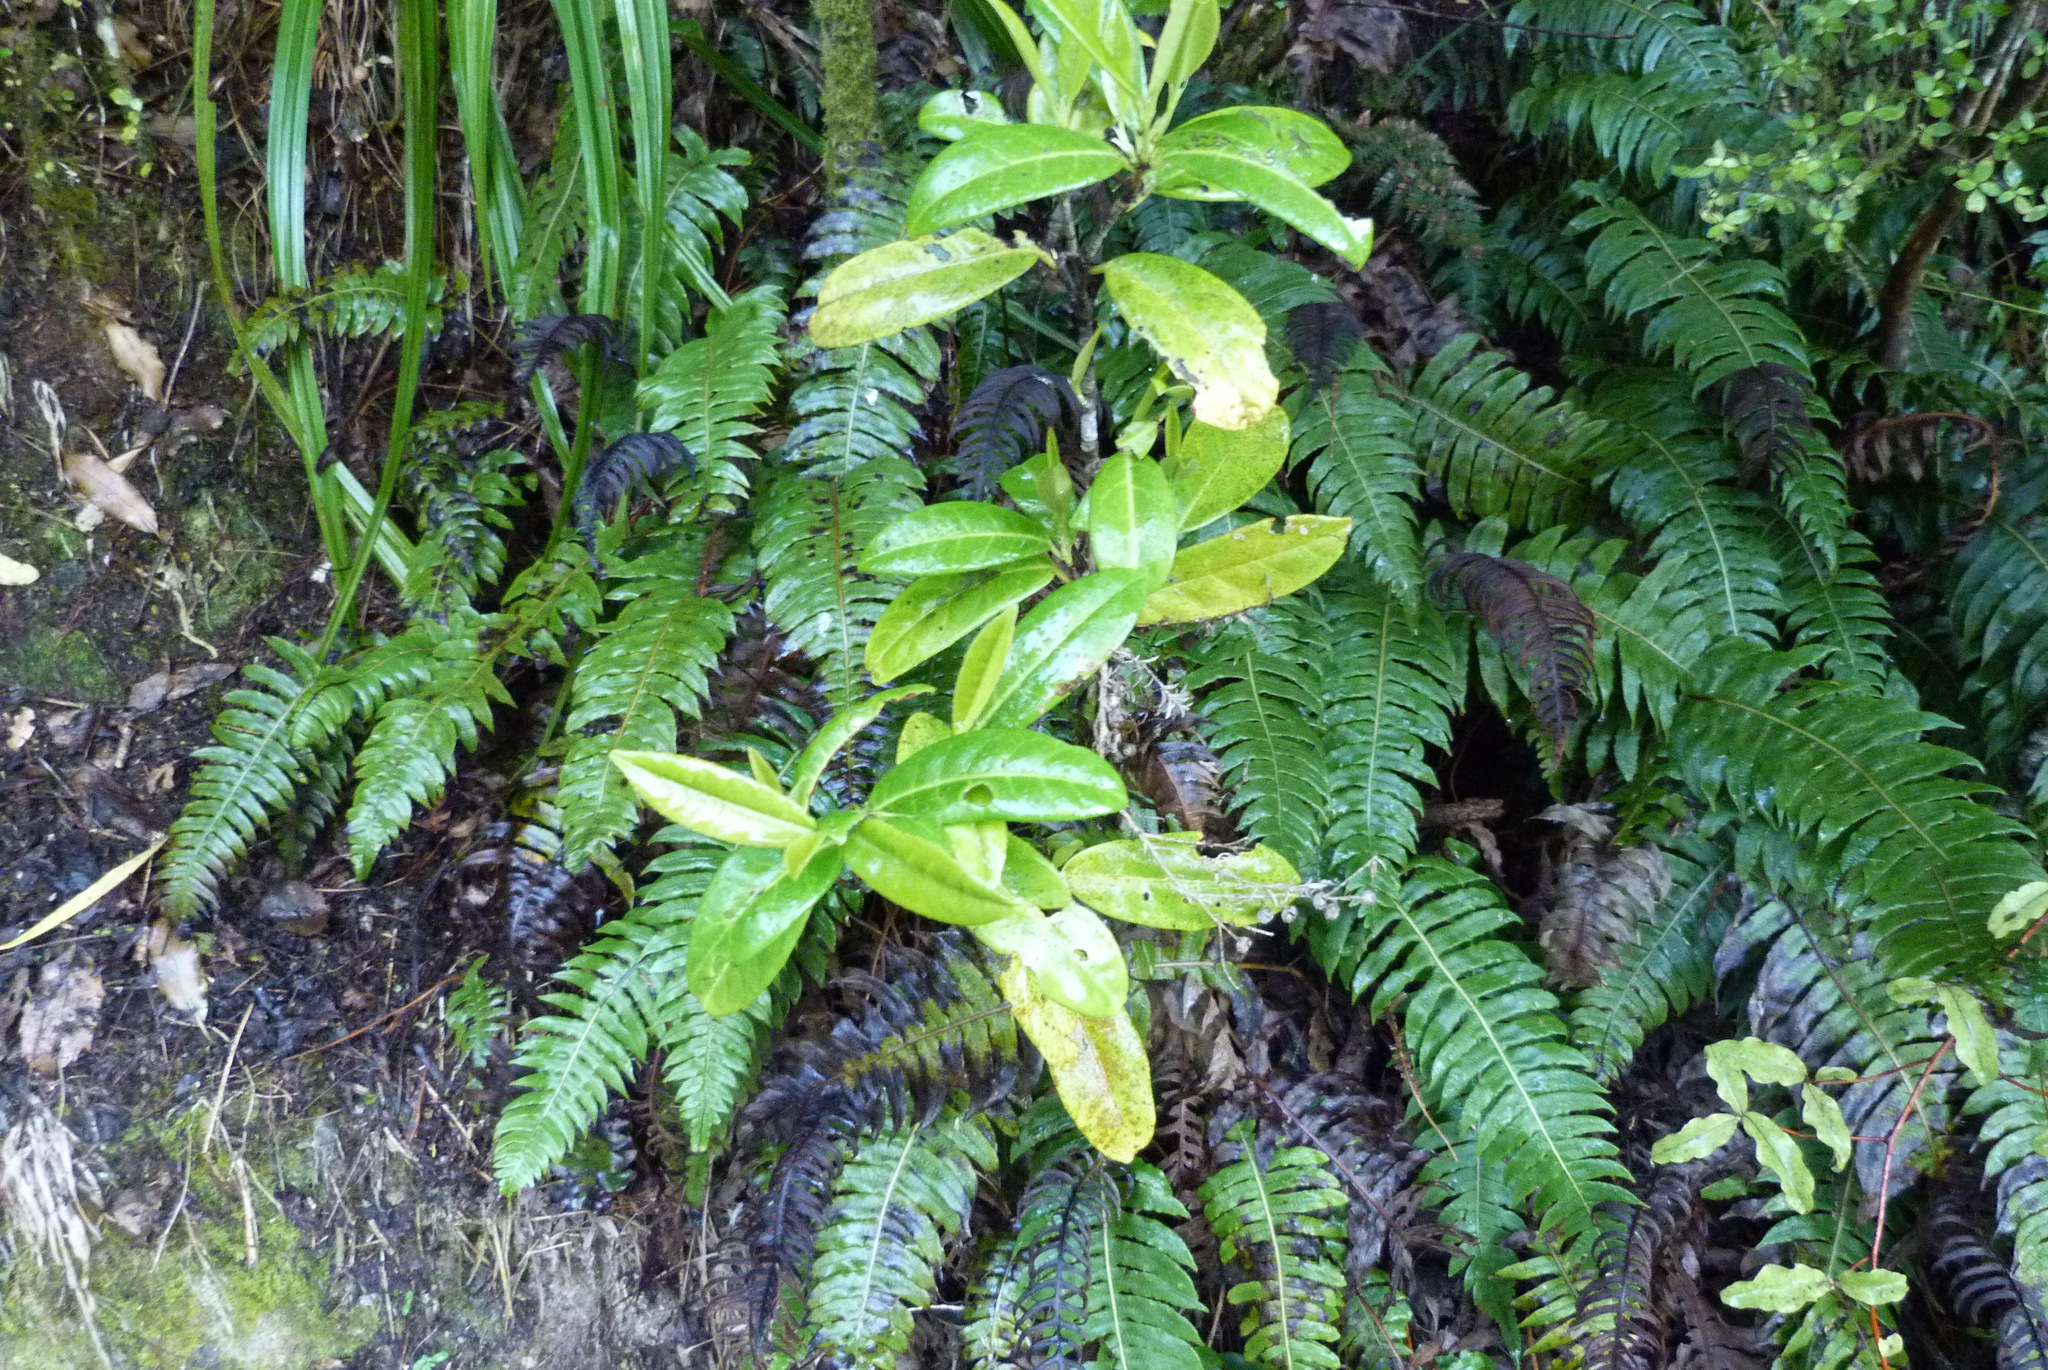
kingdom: Plantae
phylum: Tracheophyta
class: Magnoliopsida
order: Rosales
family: Rosaceae
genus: Prunus
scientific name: Prunus laurocerasus
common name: Cherry laurel
